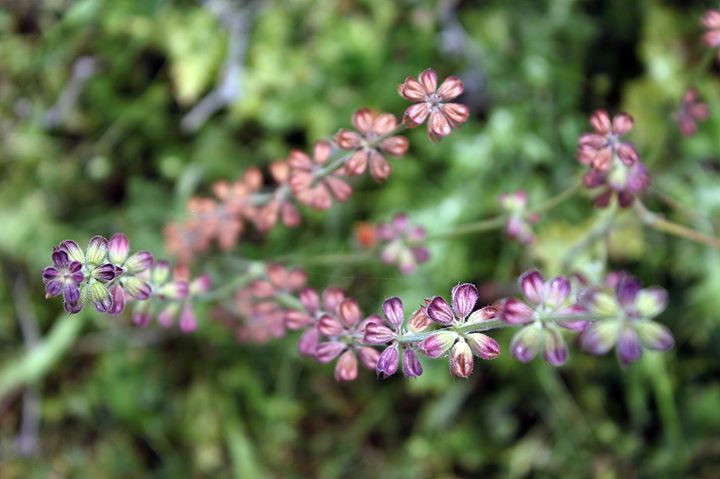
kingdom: Plantae
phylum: Tracheophyta
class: Magnoliopsida
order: Lamiales
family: Lamiaceae
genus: Salvia
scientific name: Salvia verbenaca
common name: Wild clary
